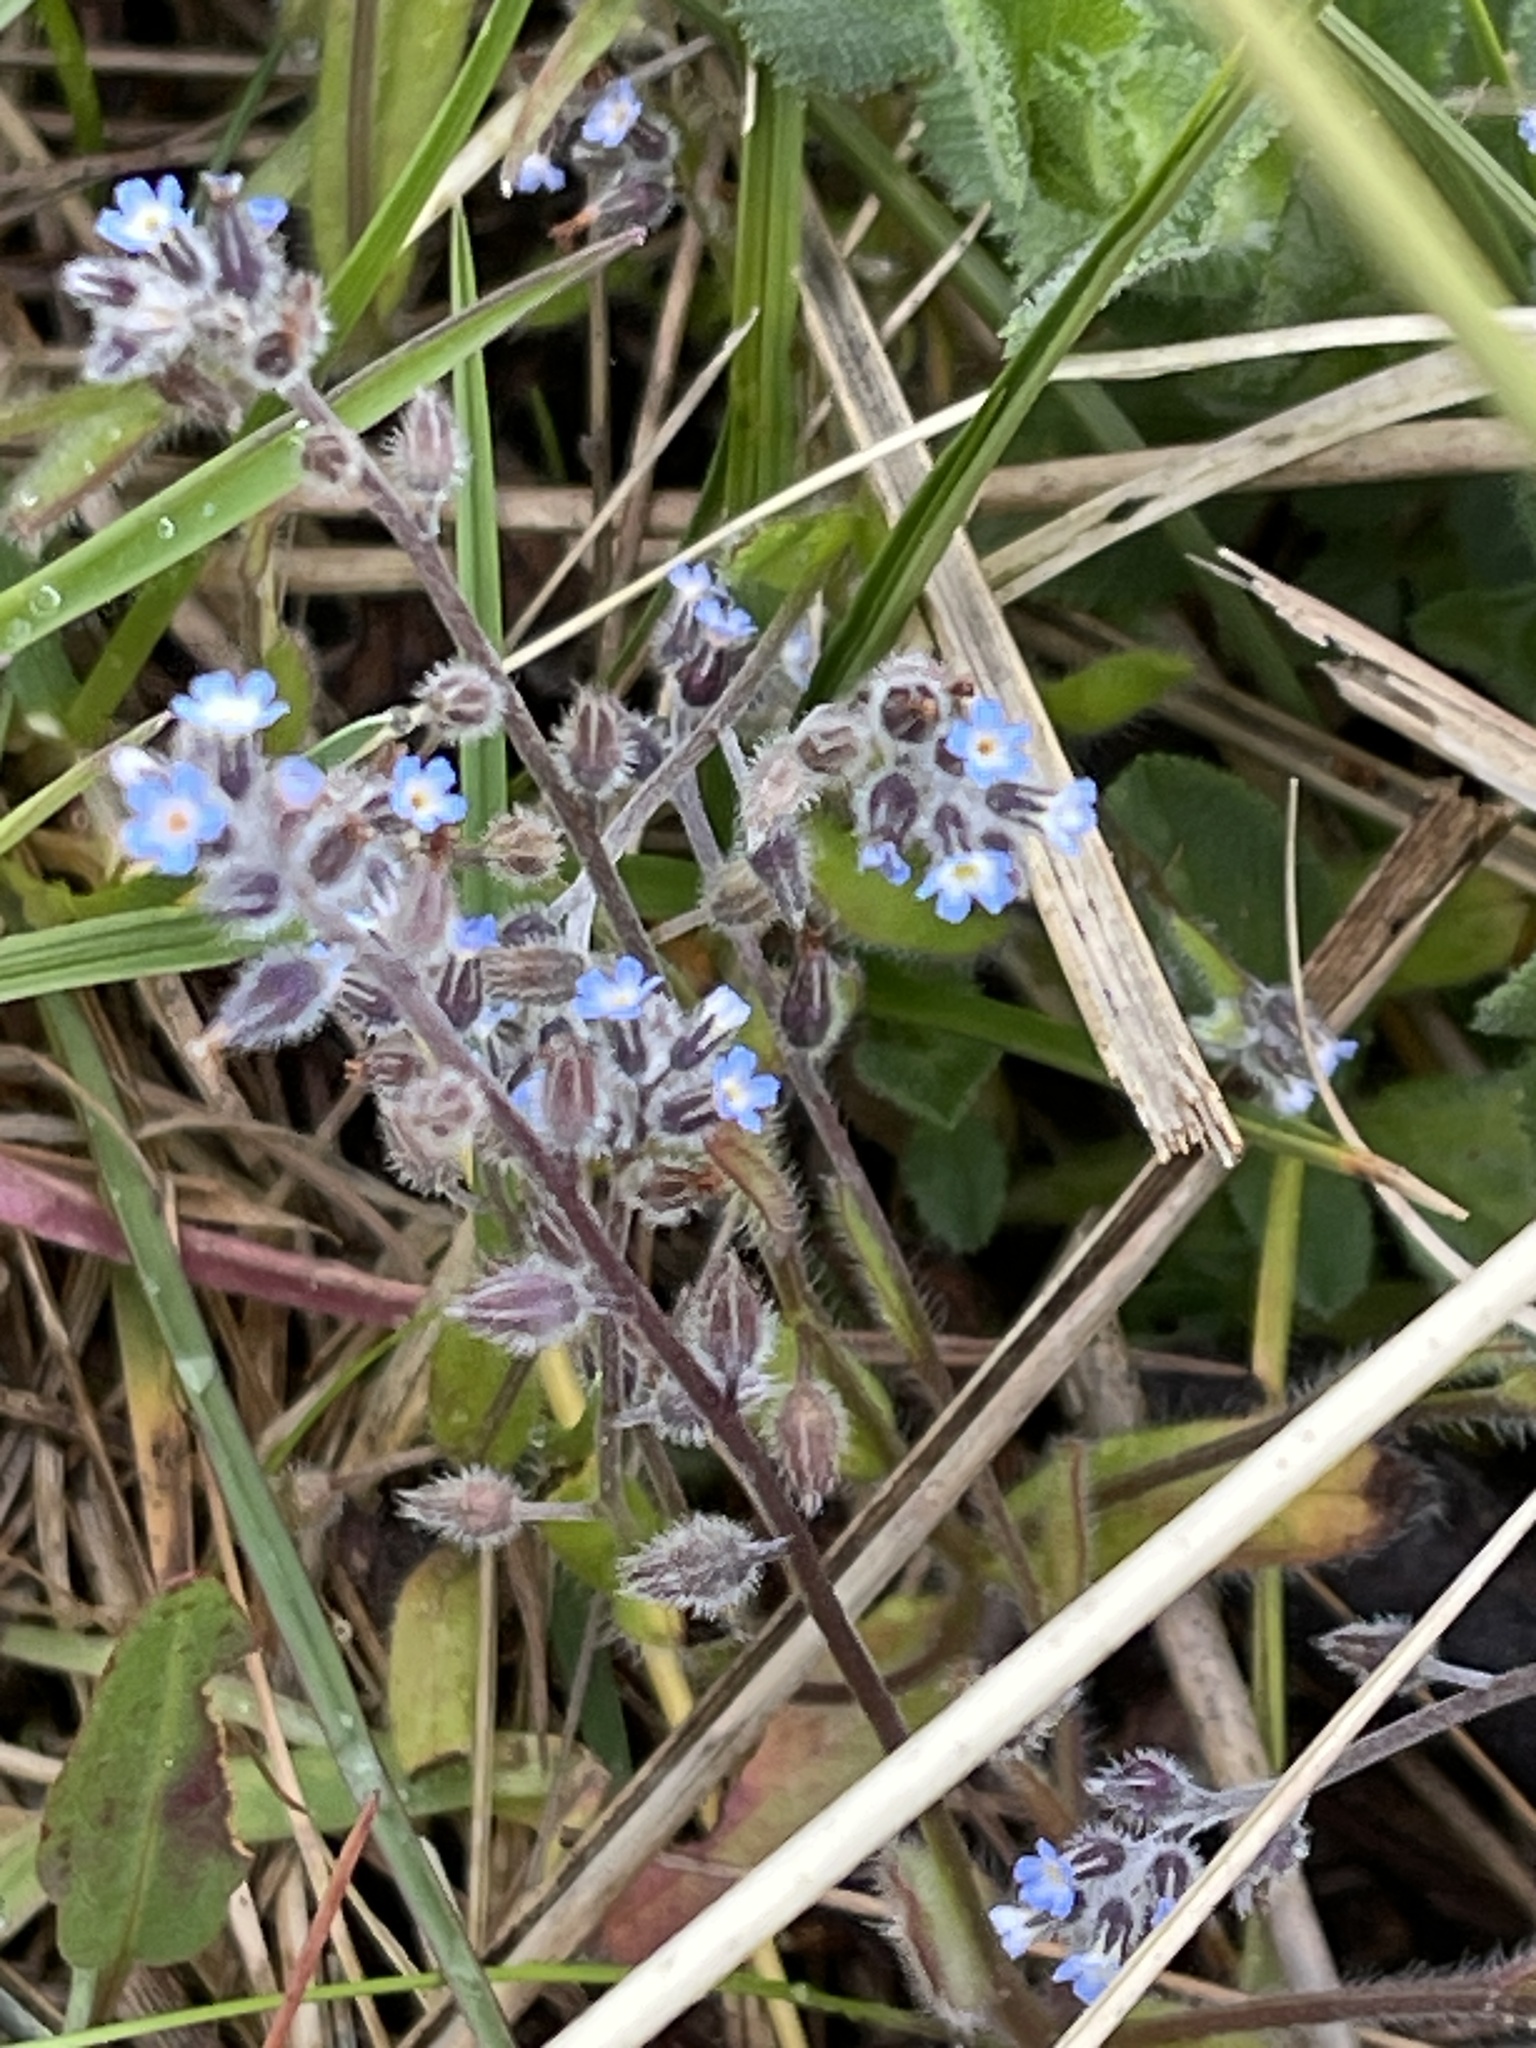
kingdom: Plantae
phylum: Tracheophyta
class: Magnoliopsida
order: Boraginales
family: Boraginaceae
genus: Myosotis
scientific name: Myosotis ramosissima
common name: Early forget-me-not
